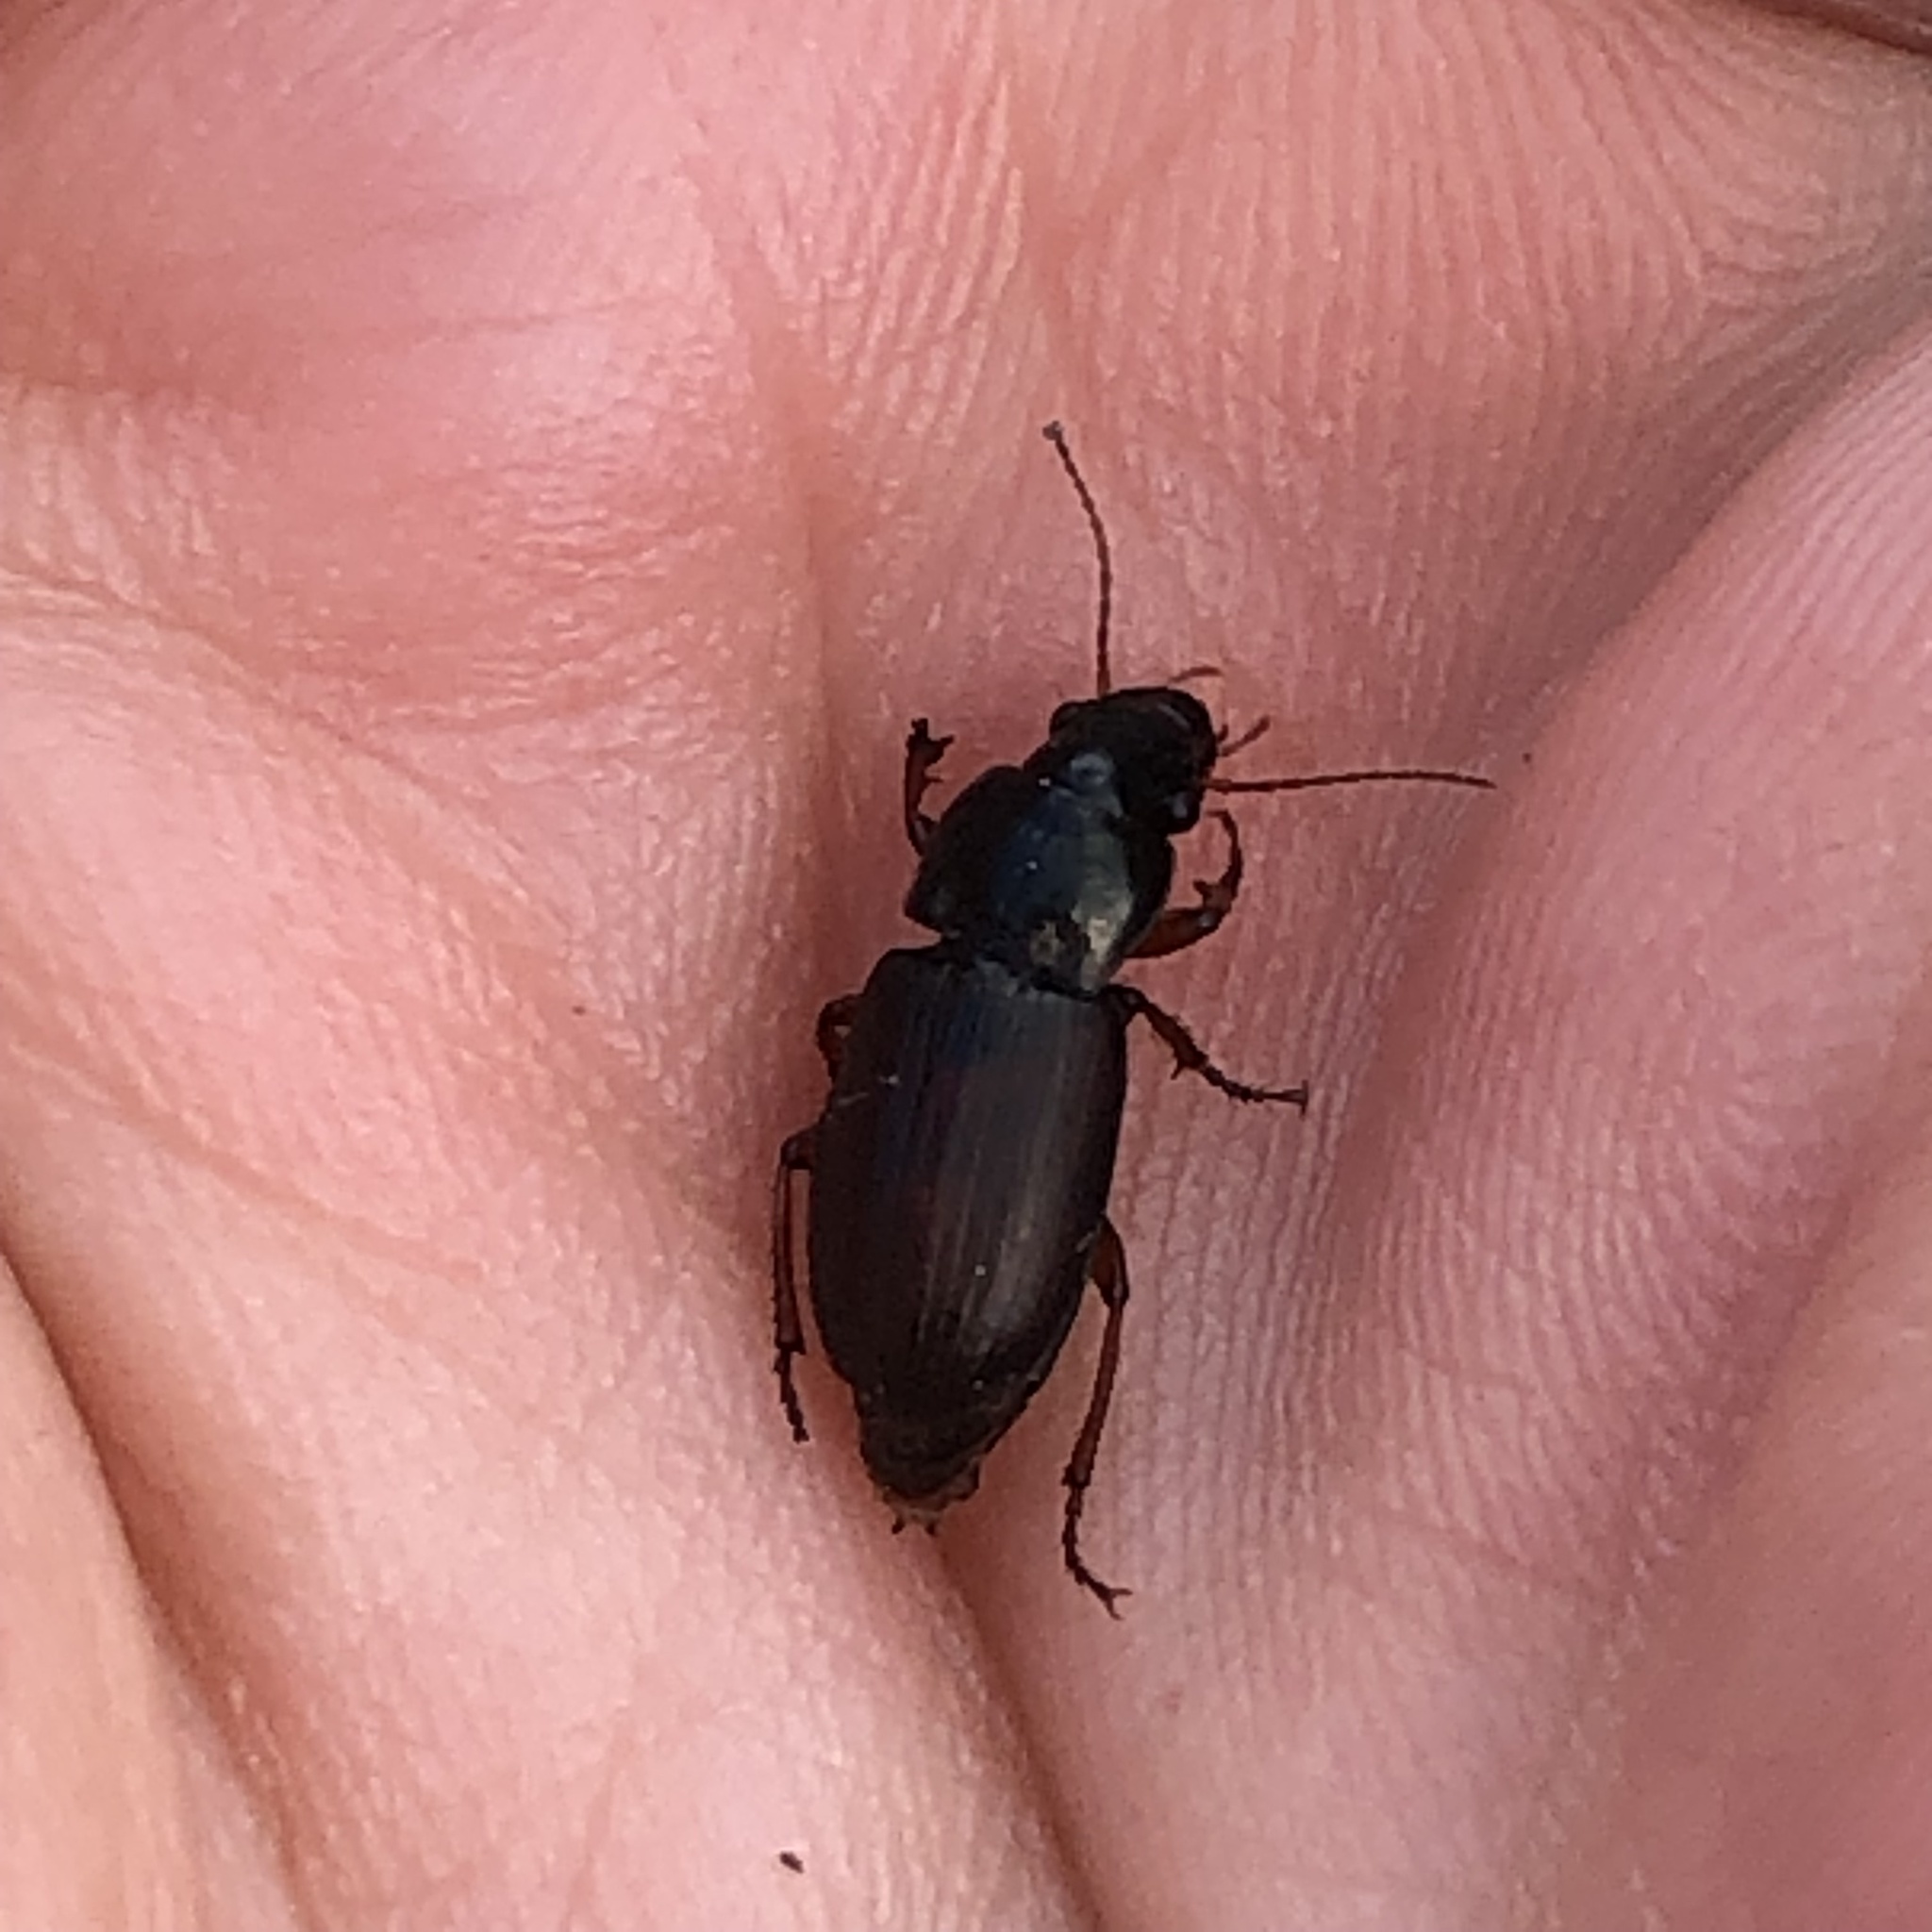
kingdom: Animalia
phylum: Arthropoda
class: Insecta
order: Coleoptera
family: Carabidae
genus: Harpalus
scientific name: Harpalus affinis
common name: Polychrome harp ground beetle
